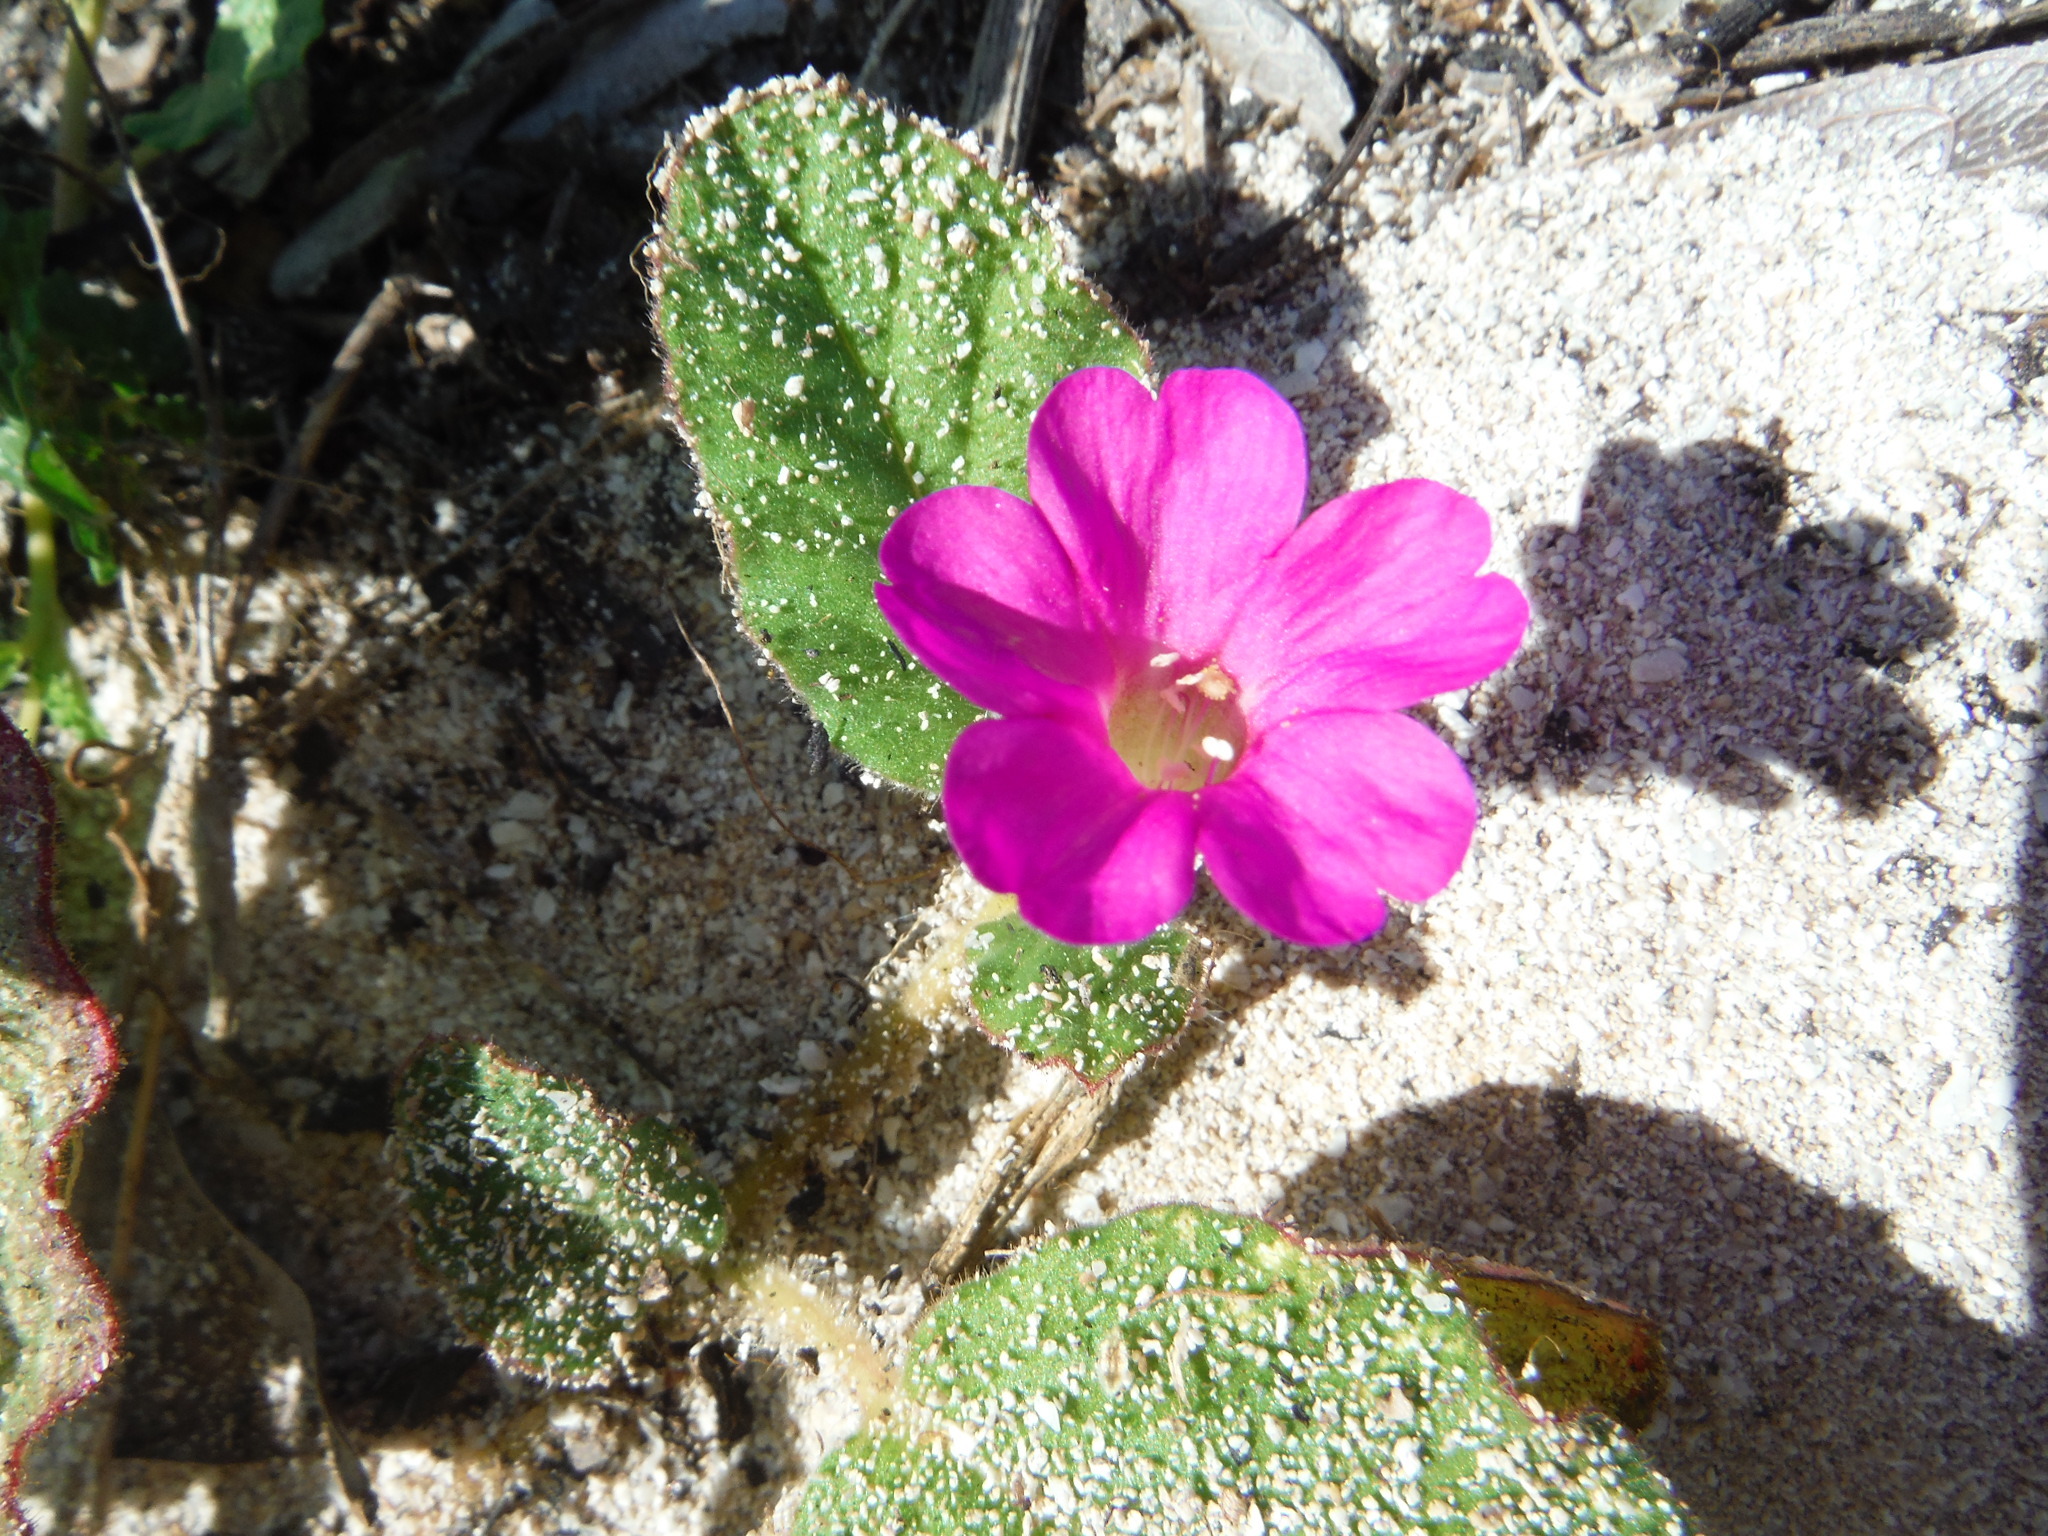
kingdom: Plantae
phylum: Tracheophyta
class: Magnoliopsida
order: Caryophyllales
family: Nyctaginaceae
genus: Okenia
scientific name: Okenia hypogaea
